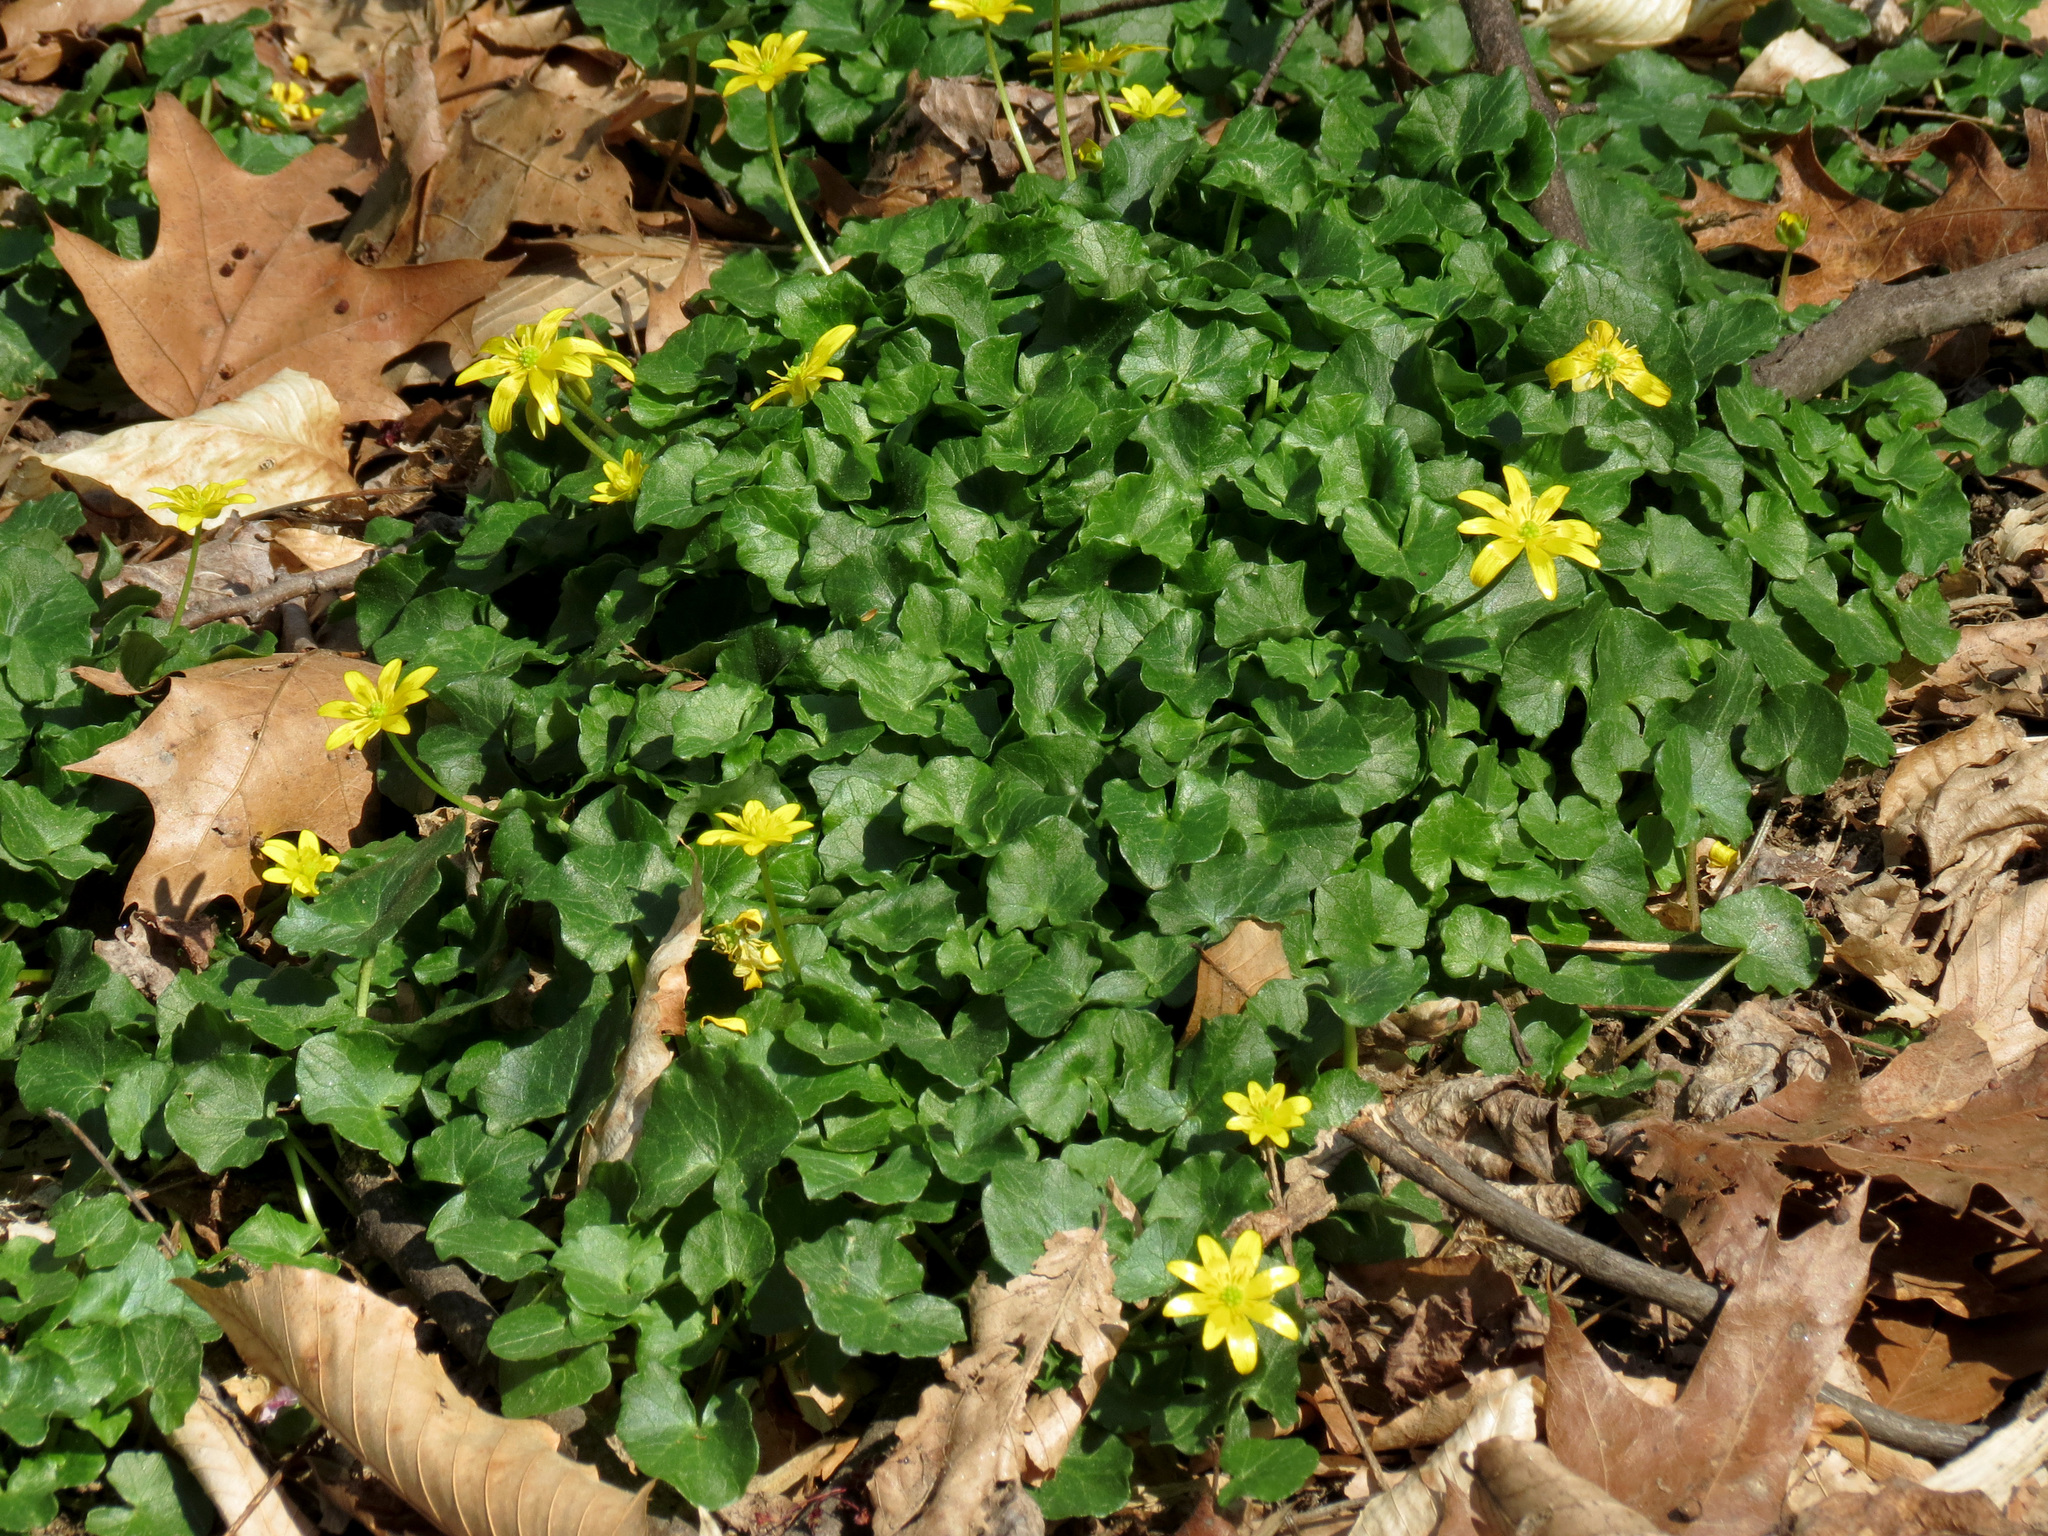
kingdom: Plantae
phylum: Tracheophyta
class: Magnoliopsida
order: Ranunculales
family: Ranunculaceae
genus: Ficaria
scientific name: Ficaria verna
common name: Lesser celandine
